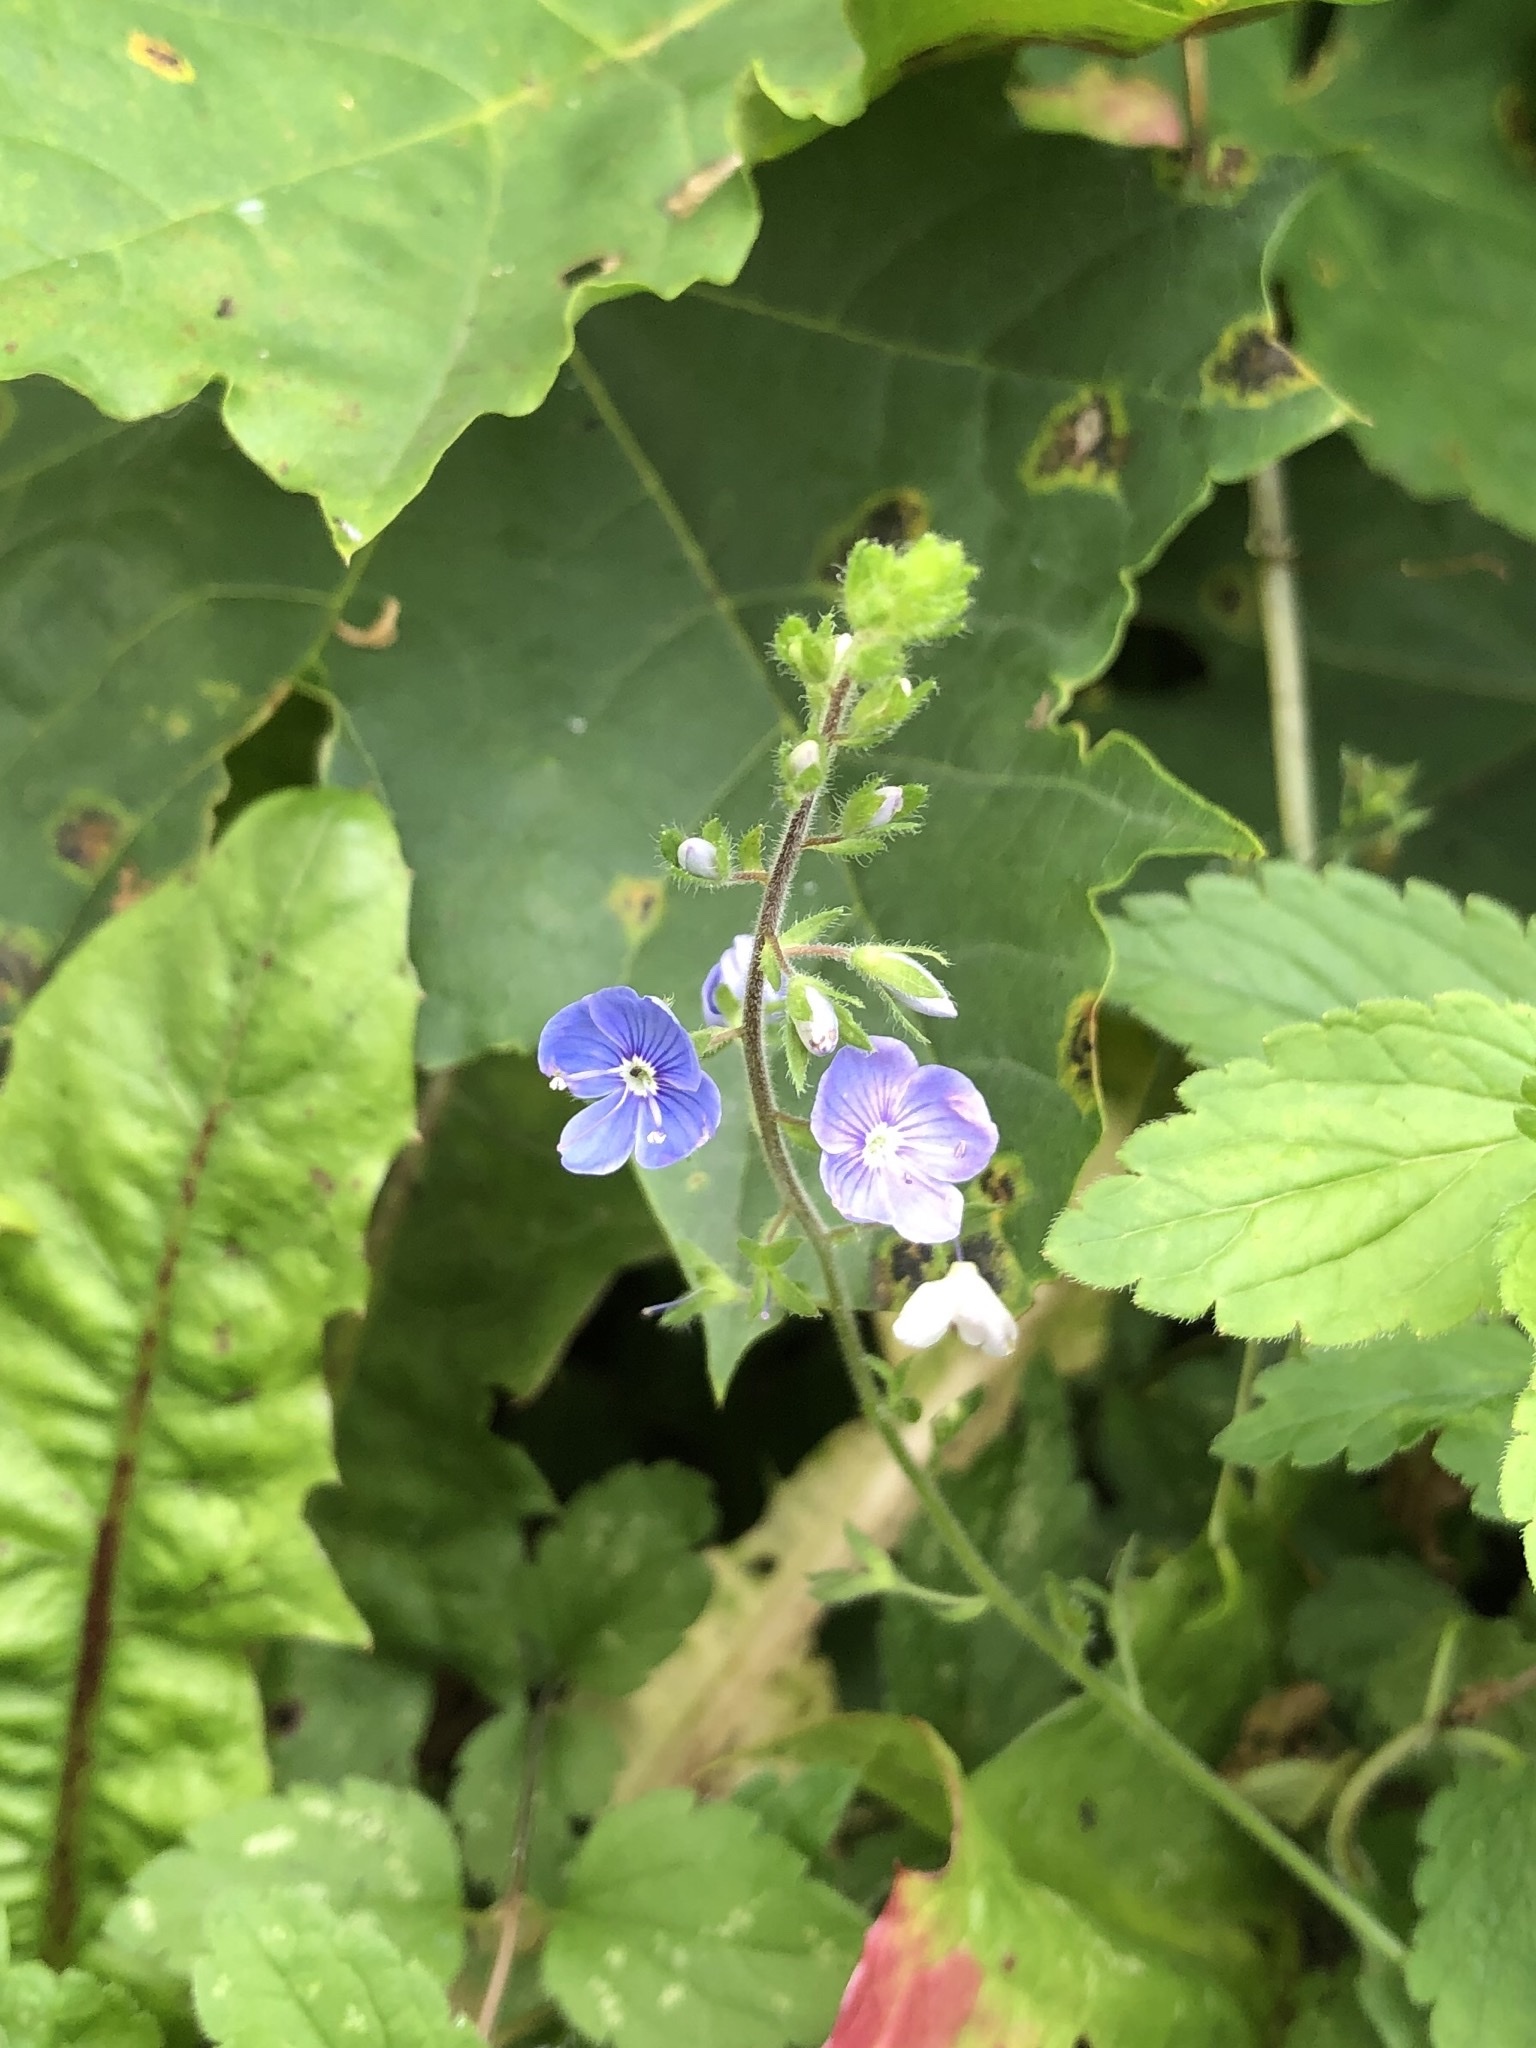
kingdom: Plantae
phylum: Tracheophyta
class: Magnoliopsida
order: Lamiales
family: Plantaginaceae
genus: Veronica
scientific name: Veronica chamaedrys
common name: Germander speedwell
